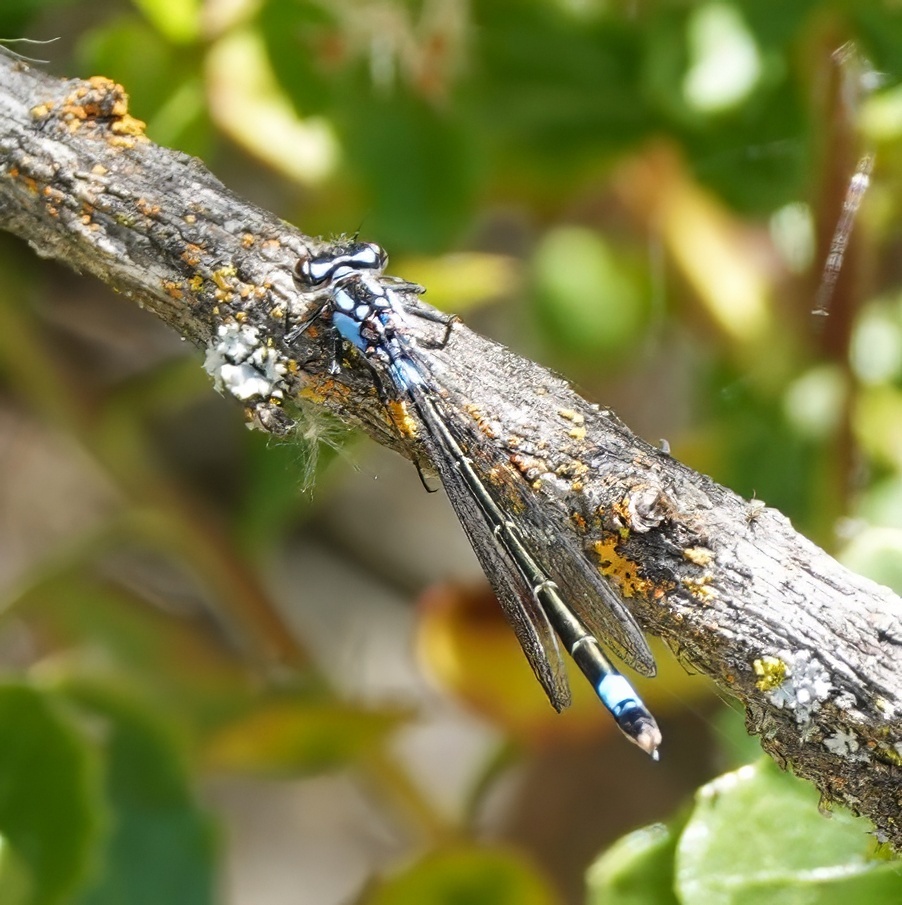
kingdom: Animalia
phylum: Arthropoda
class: Insecta
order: Odonata
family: Coenagrionidae
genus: Zoniagrion
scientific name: Zoniagrion exclamationis
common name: Exclamation damsel
